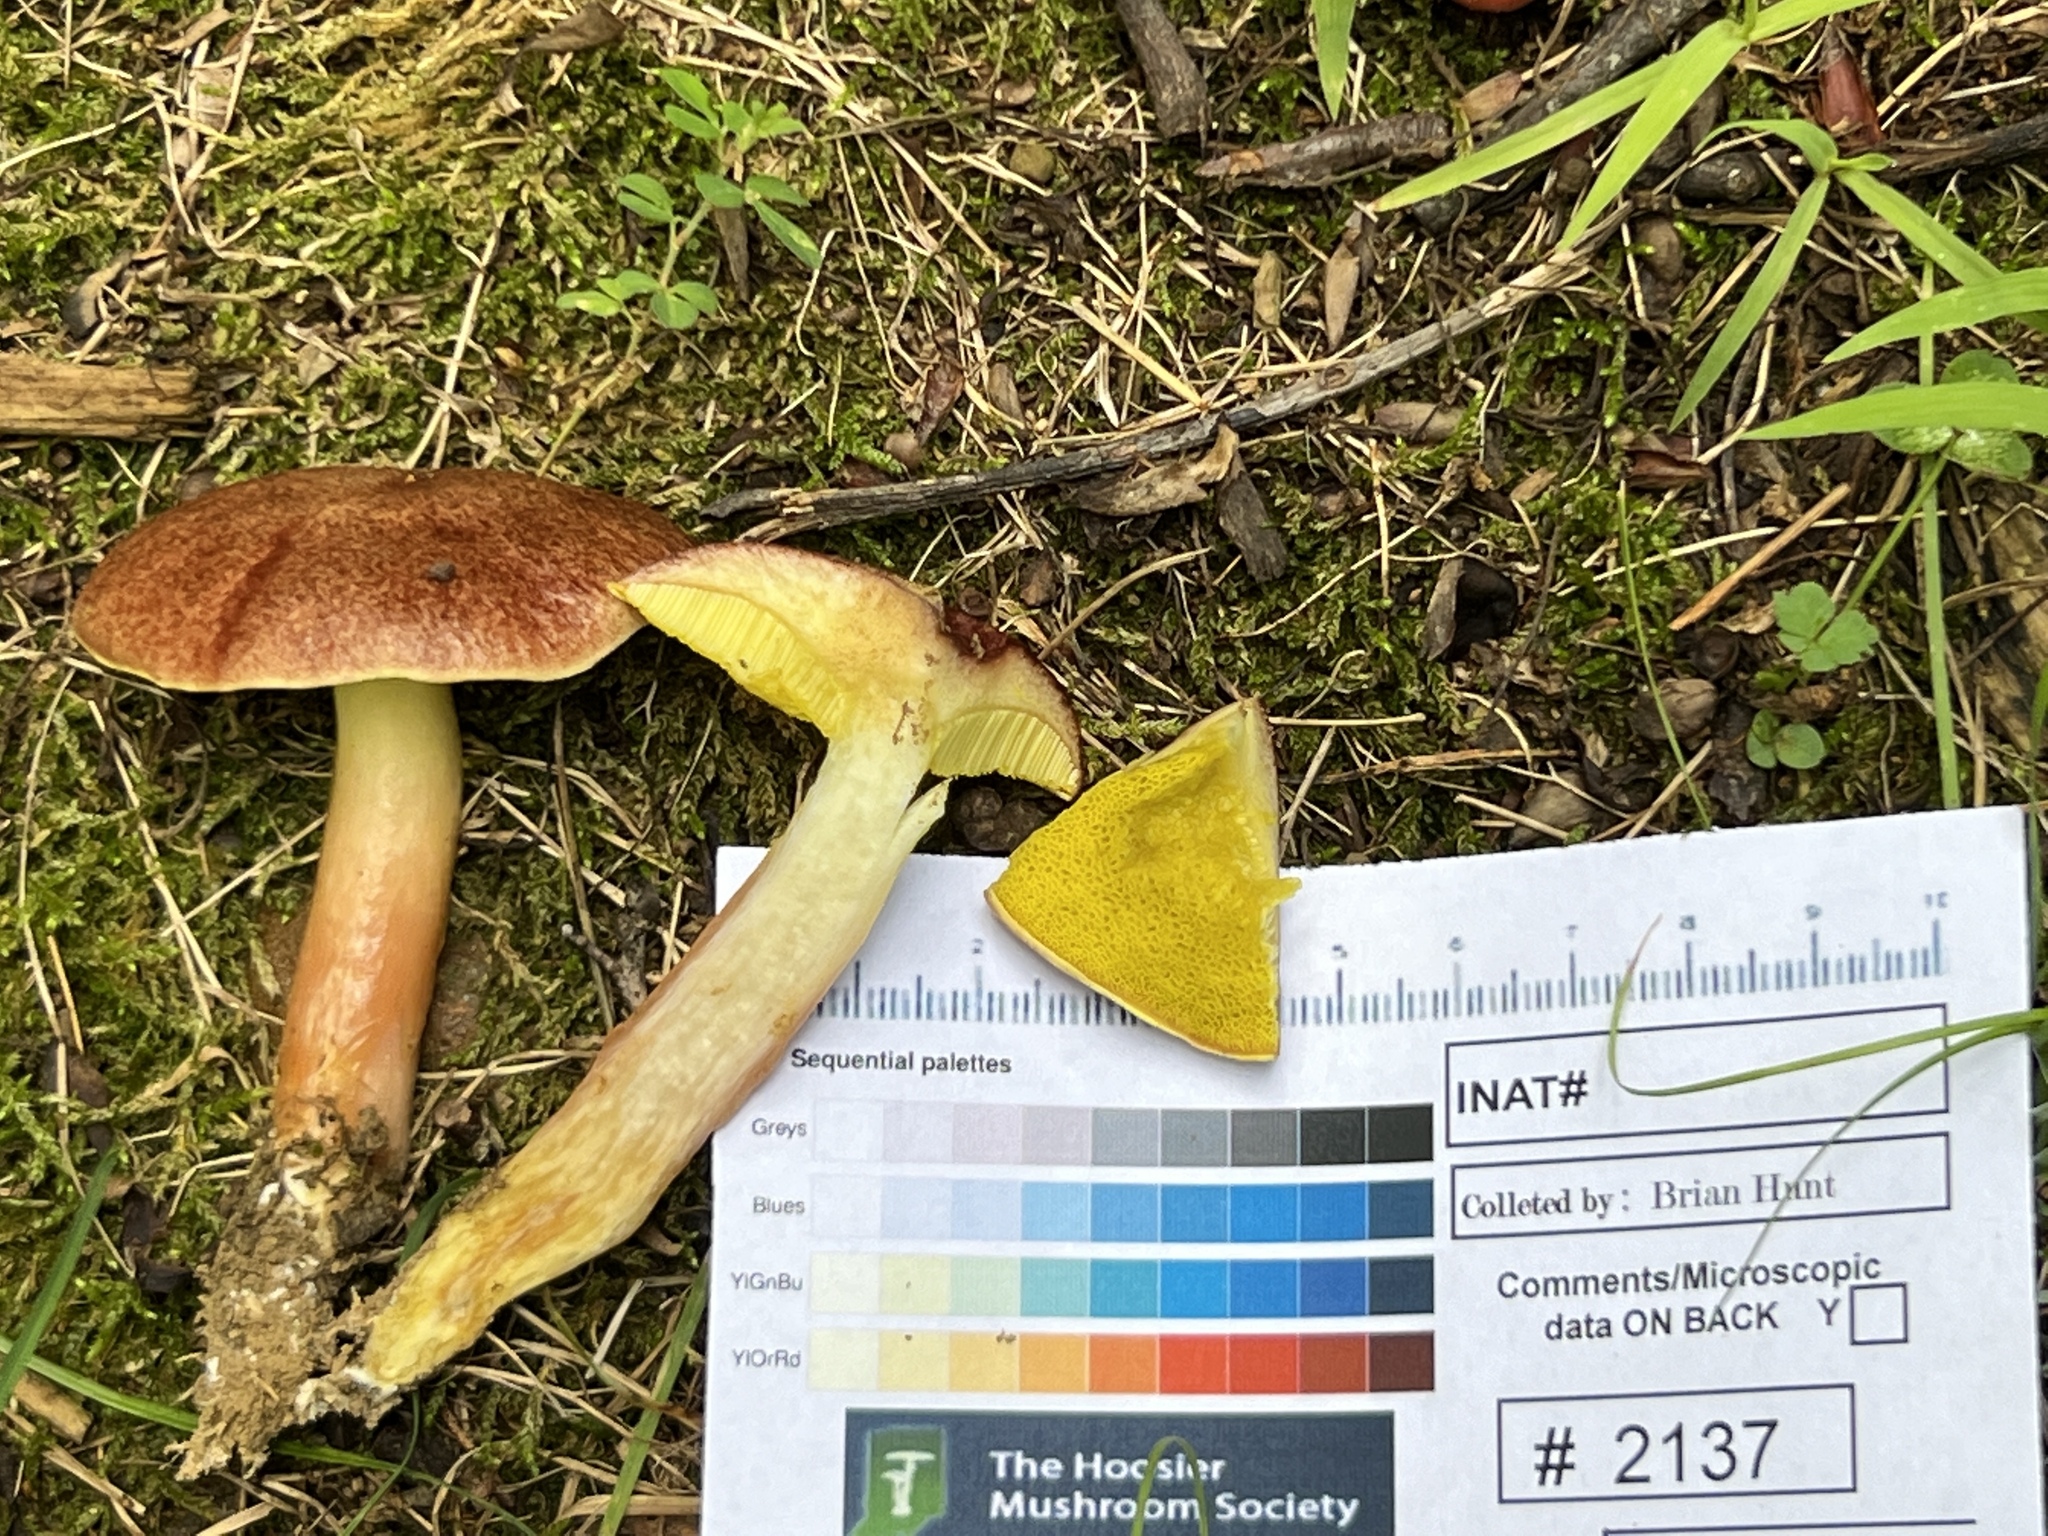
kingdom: Fungi
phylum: Basidiomycota
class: Agaricomycetes
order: Boletales
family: Boletaceae
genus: Aureoboletus
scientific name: Aureoboletus auriporus
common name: Sour gold-pored bolete
